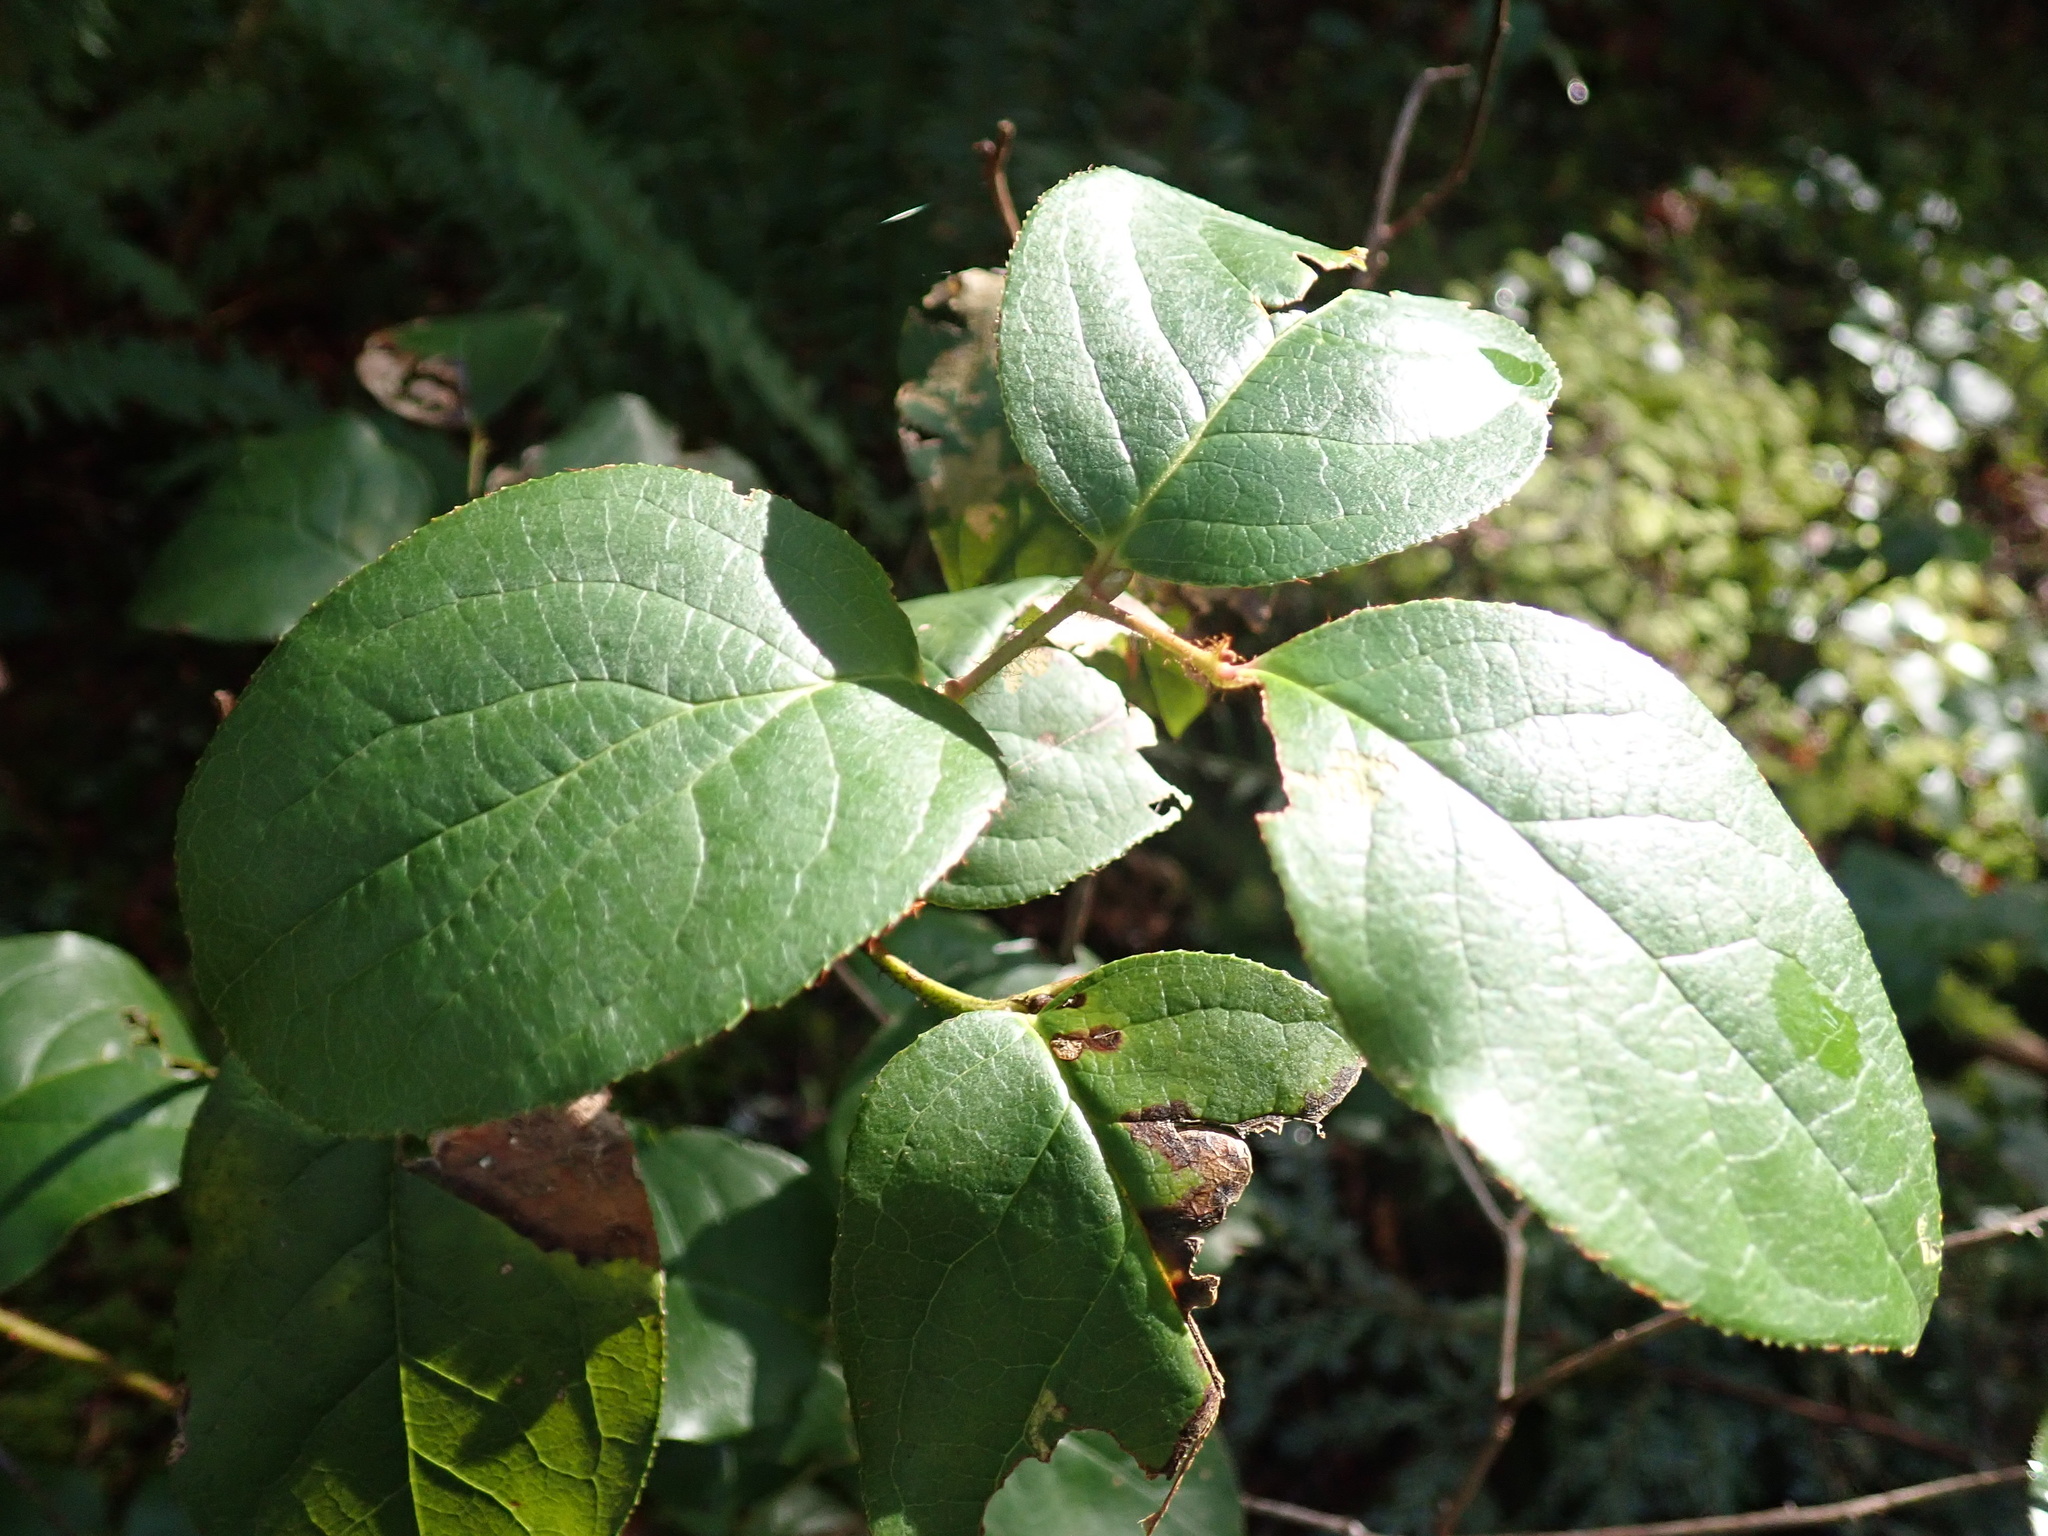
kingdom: Plantae
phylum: Tracheophyta
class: Magnoliopsida
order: Ericales
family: Ericaceae
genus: Gaultheria
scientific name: Gaultheria shallon
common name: Shallon
